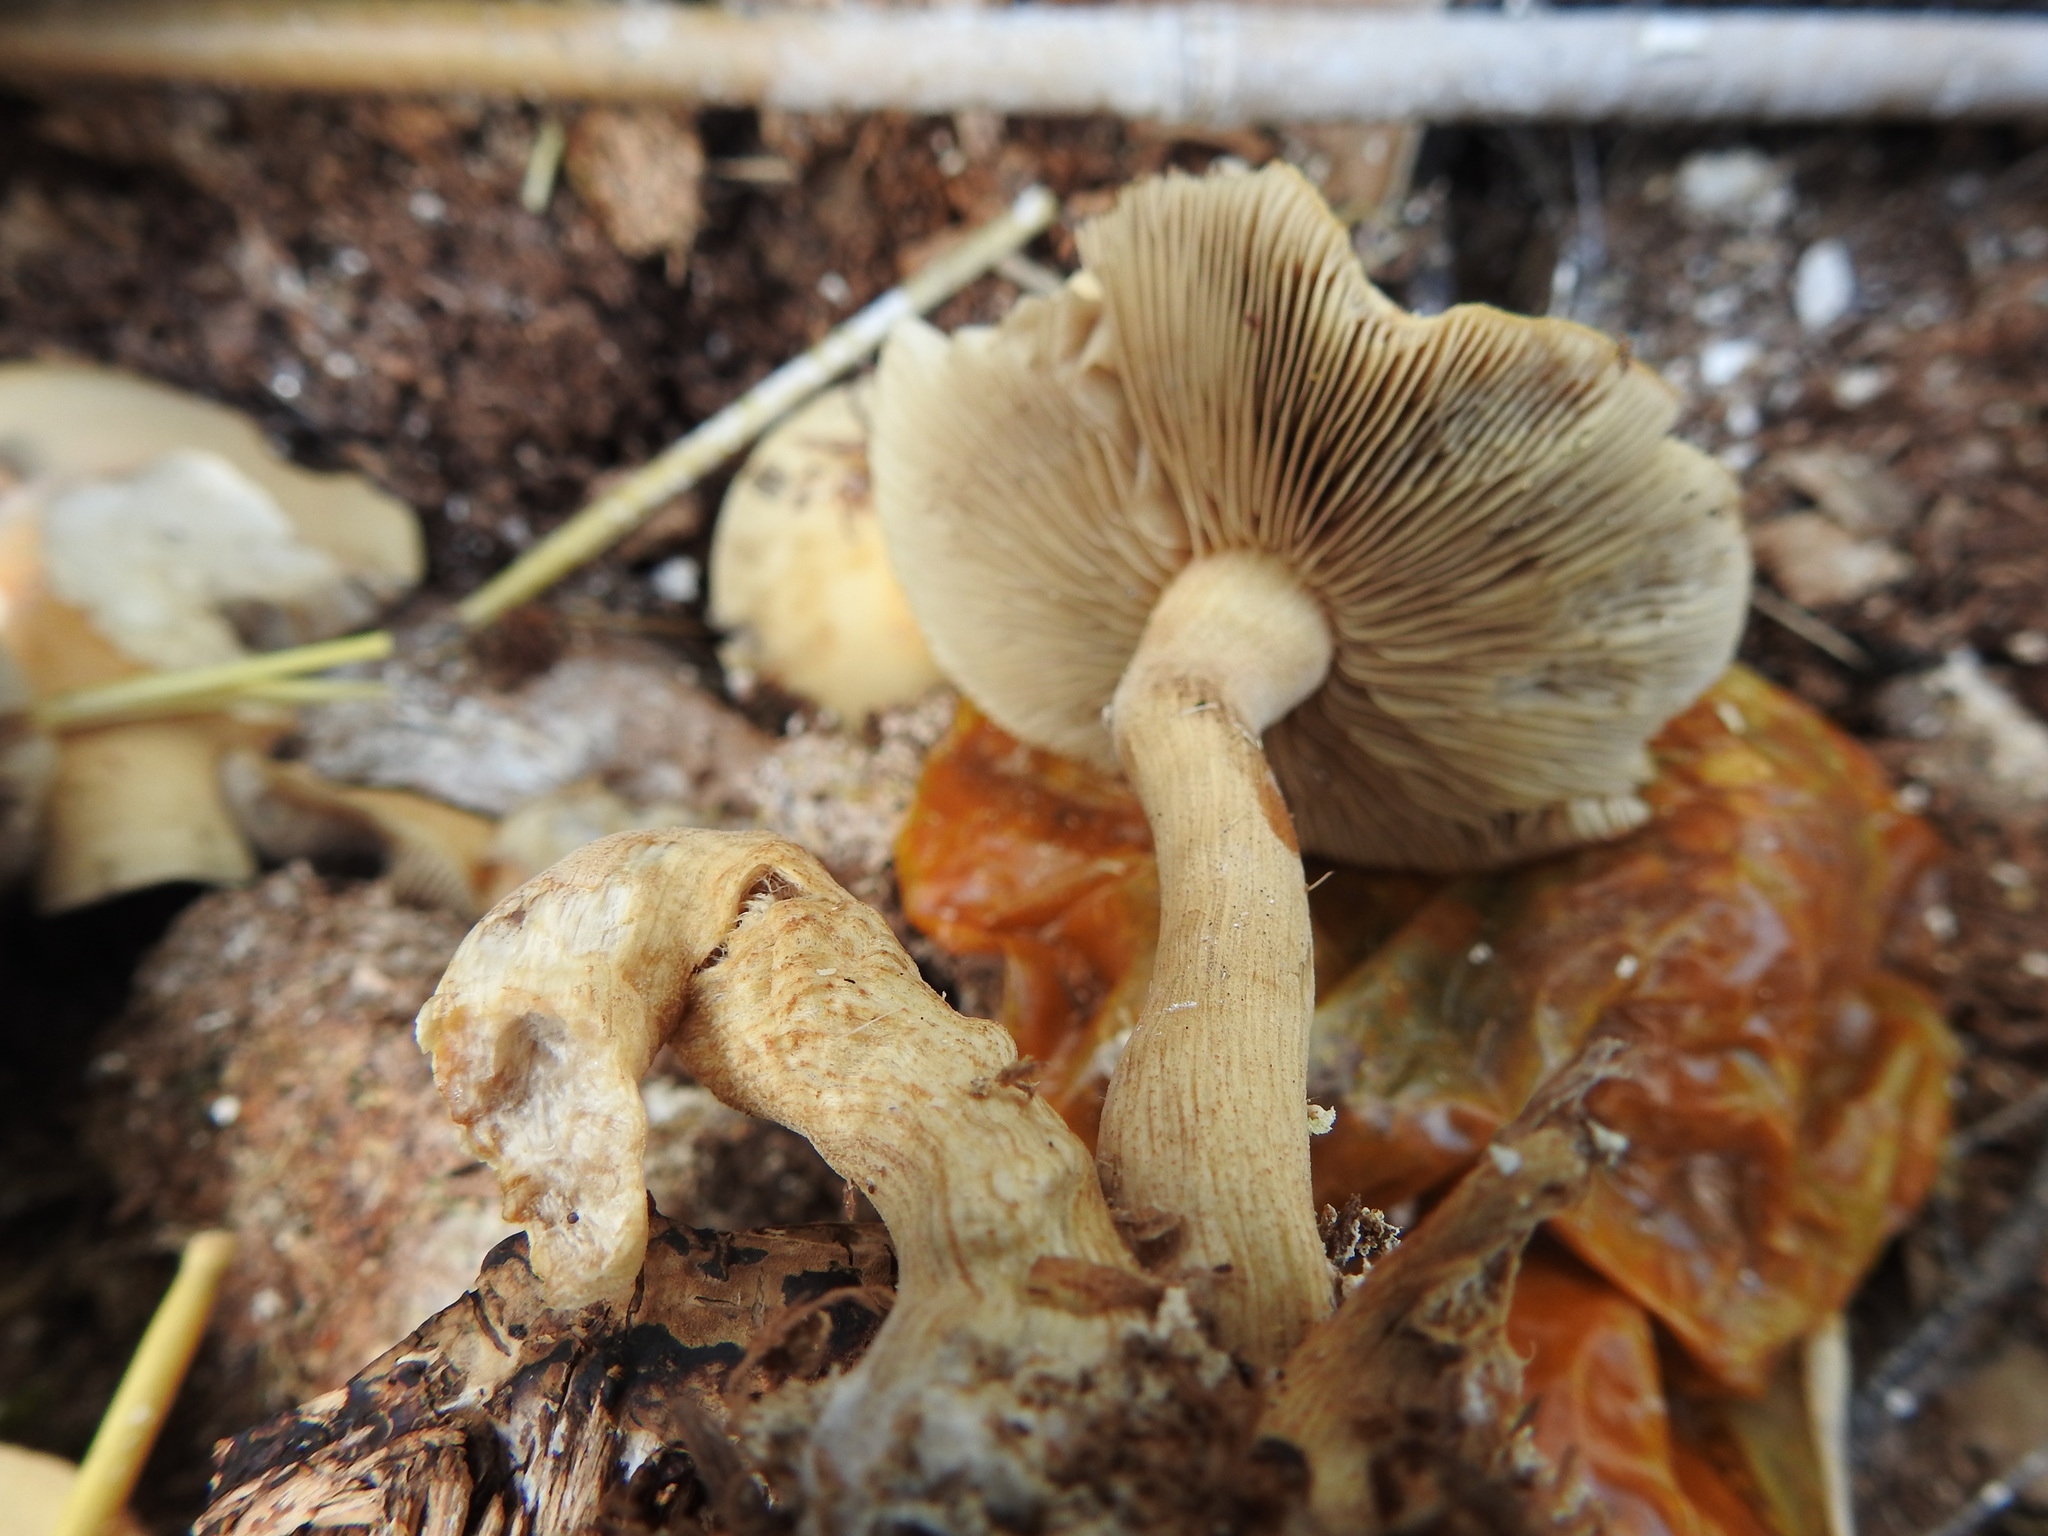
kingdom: Fungi
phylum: Basidiomycota
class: Agaricomycetes
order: Agaricales
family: Strophariaceae
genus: Agrocybe
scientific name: Agrocybe putaminum
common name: Mulch fieldcap
